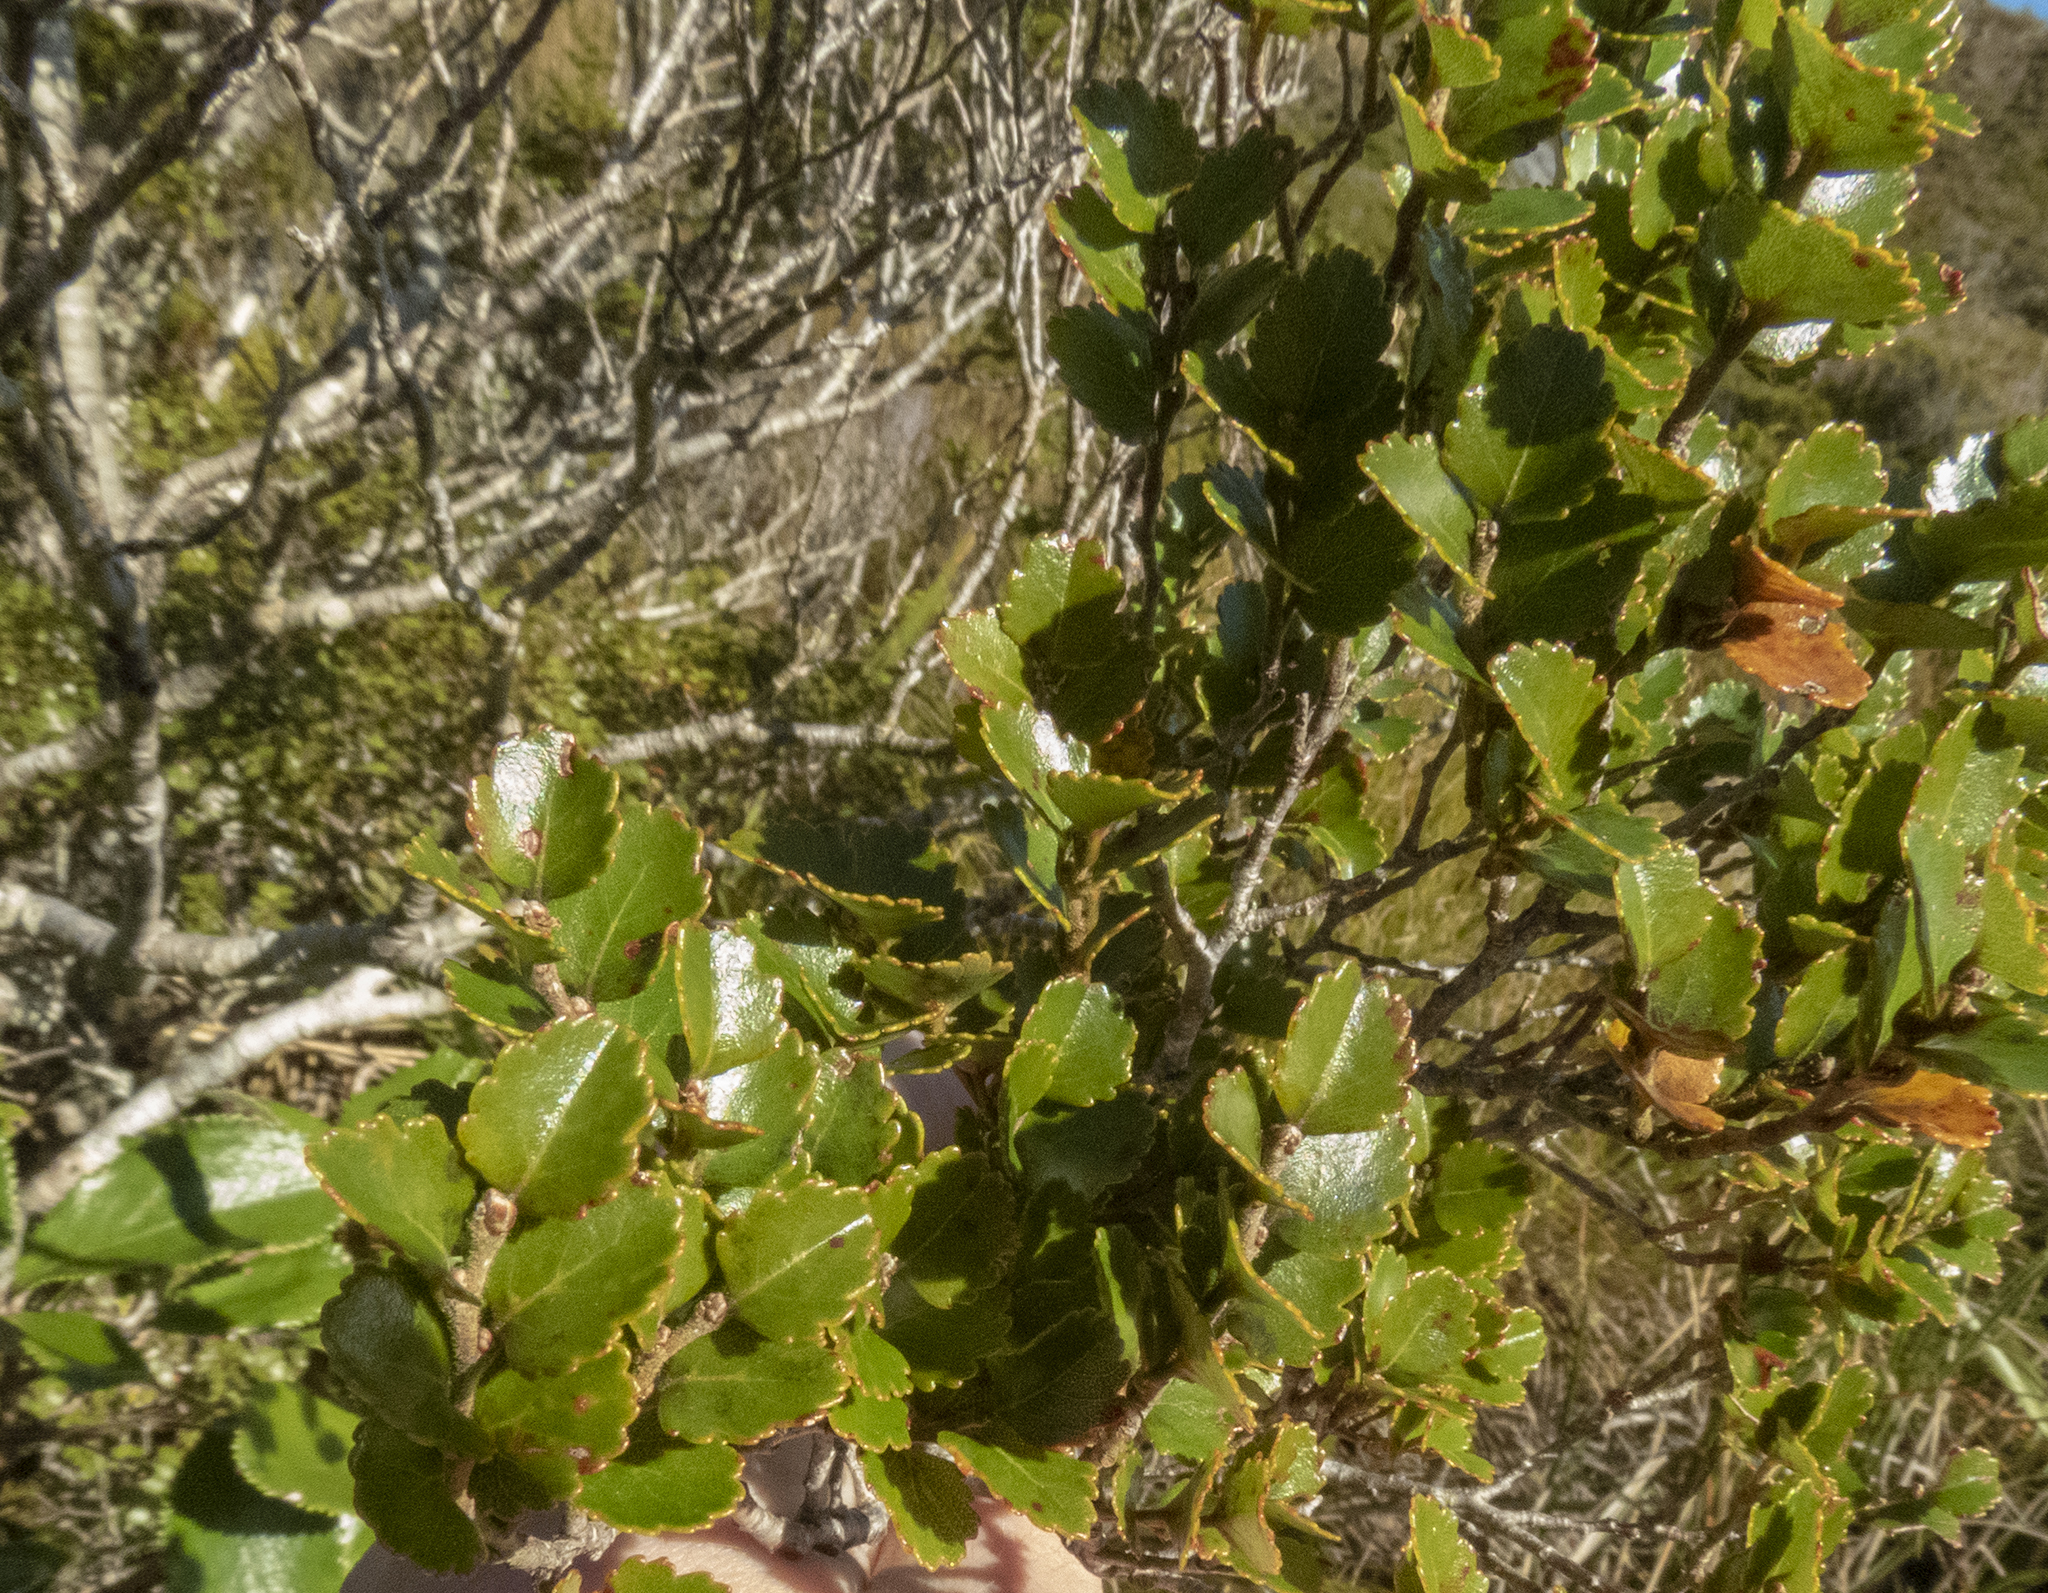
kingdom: Plantae
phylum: Tracheophyta
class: Magnoliopsida
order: Fagales
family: Nothofagaceae
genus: Nothofagus
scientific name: Nothofagus menziesii
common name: Silver beech
